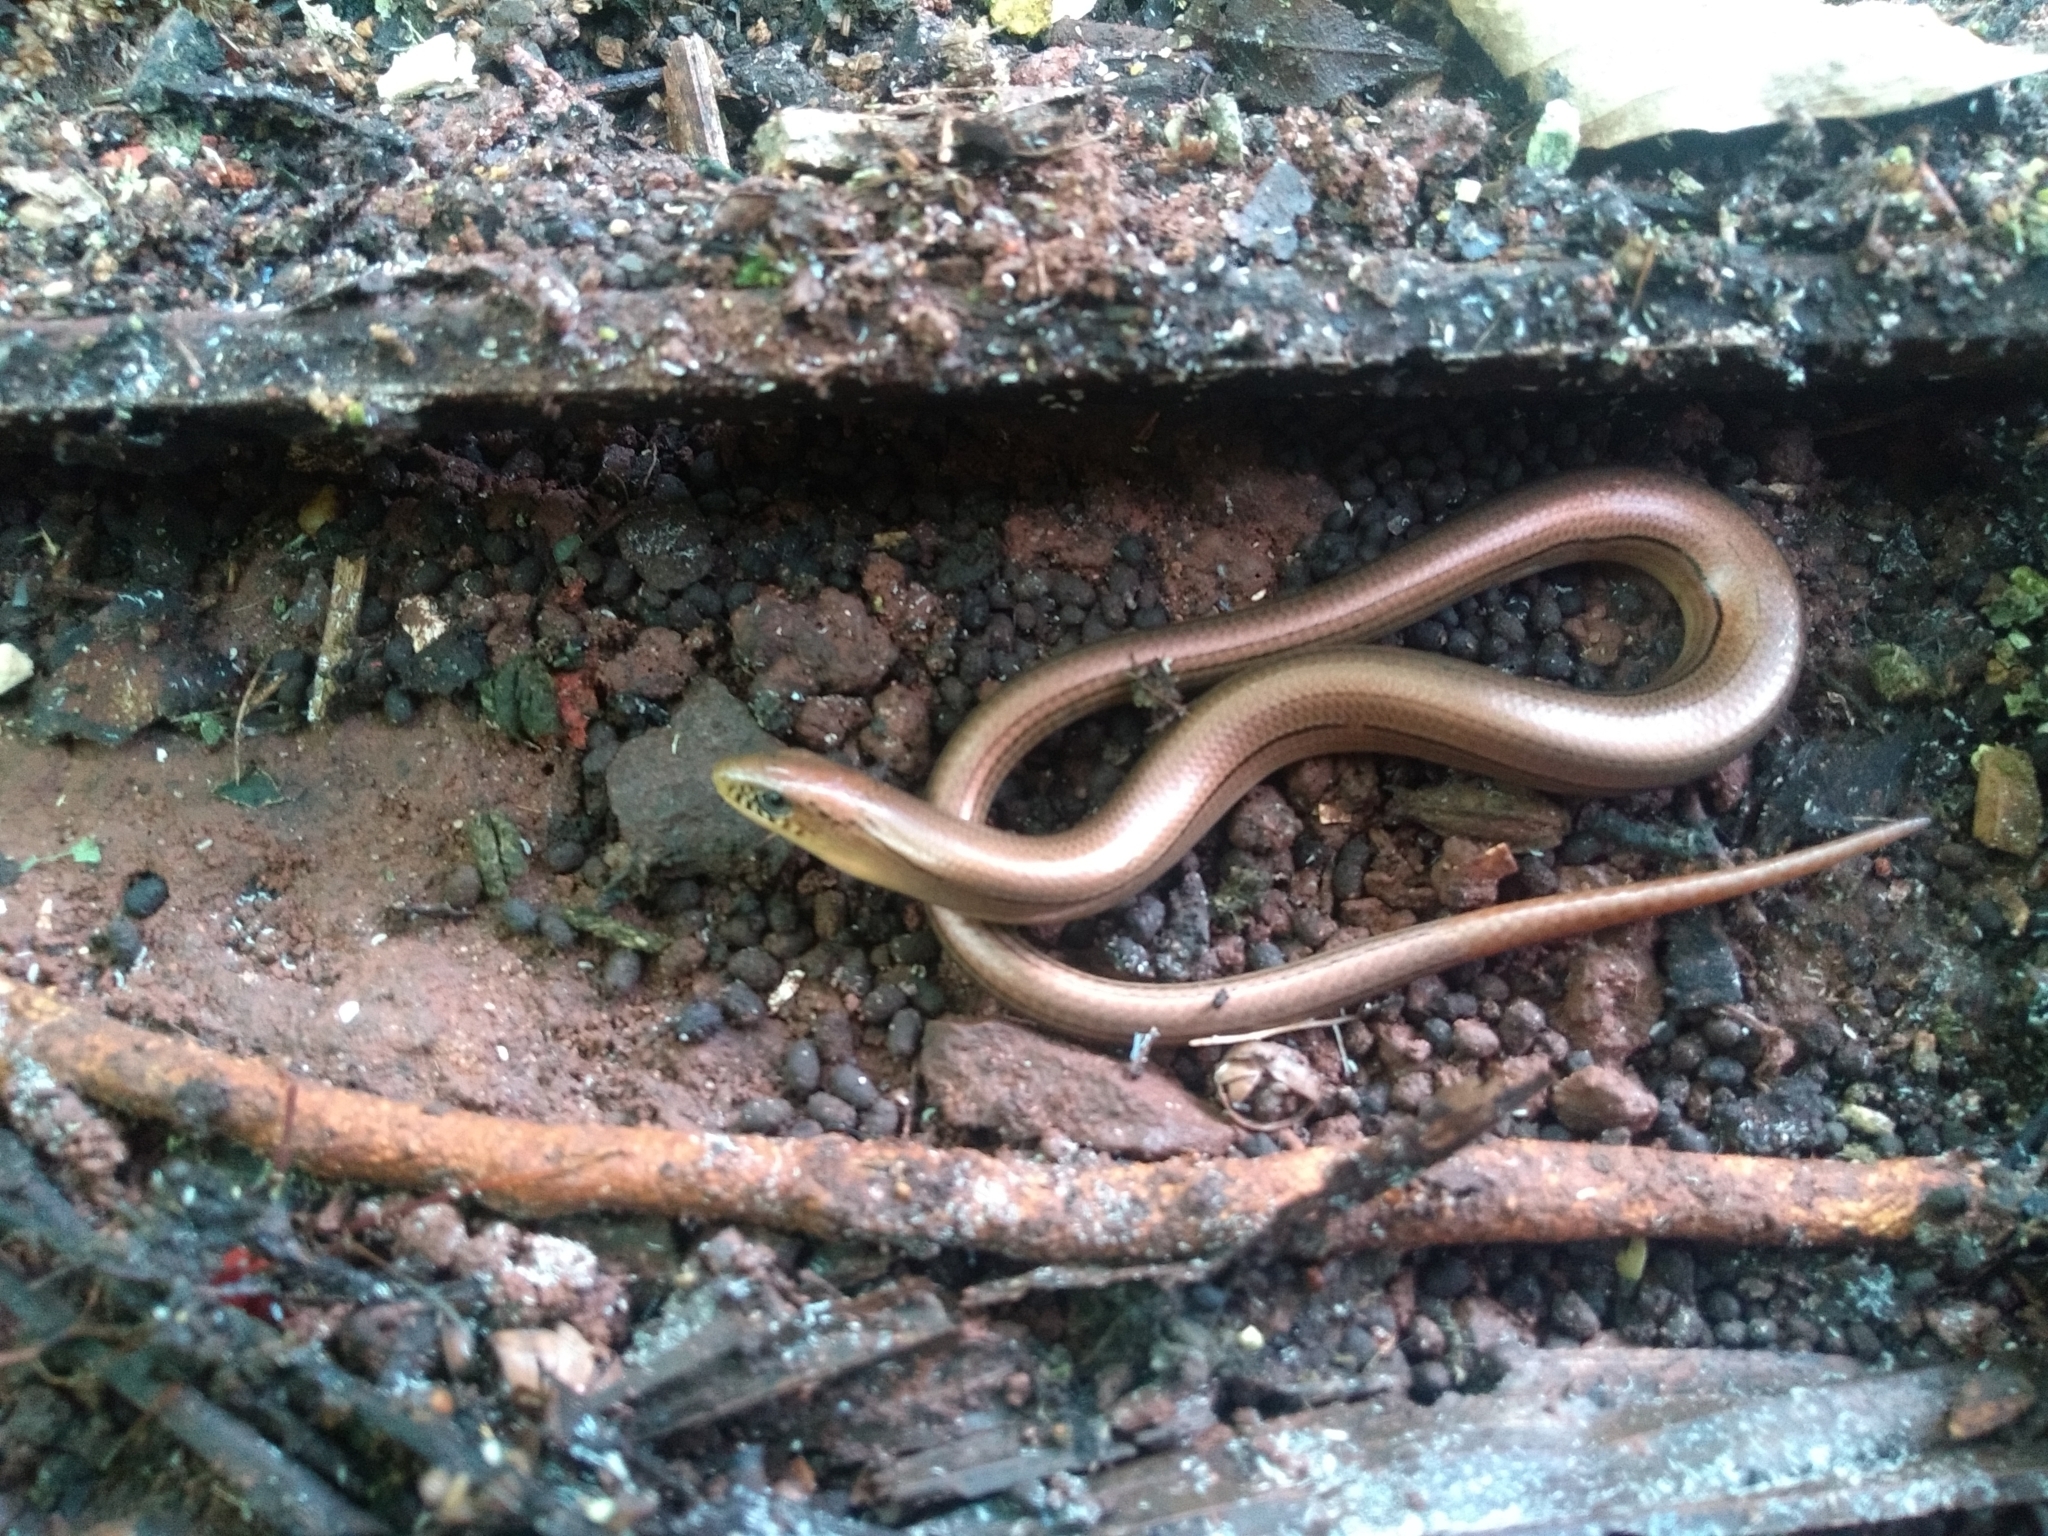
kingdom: Animalia
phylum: Chordata
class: Squamata
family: Diploglossidae
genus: Ophiodes
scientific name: Ophiodes fragilis
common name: Fragile worm lizard
